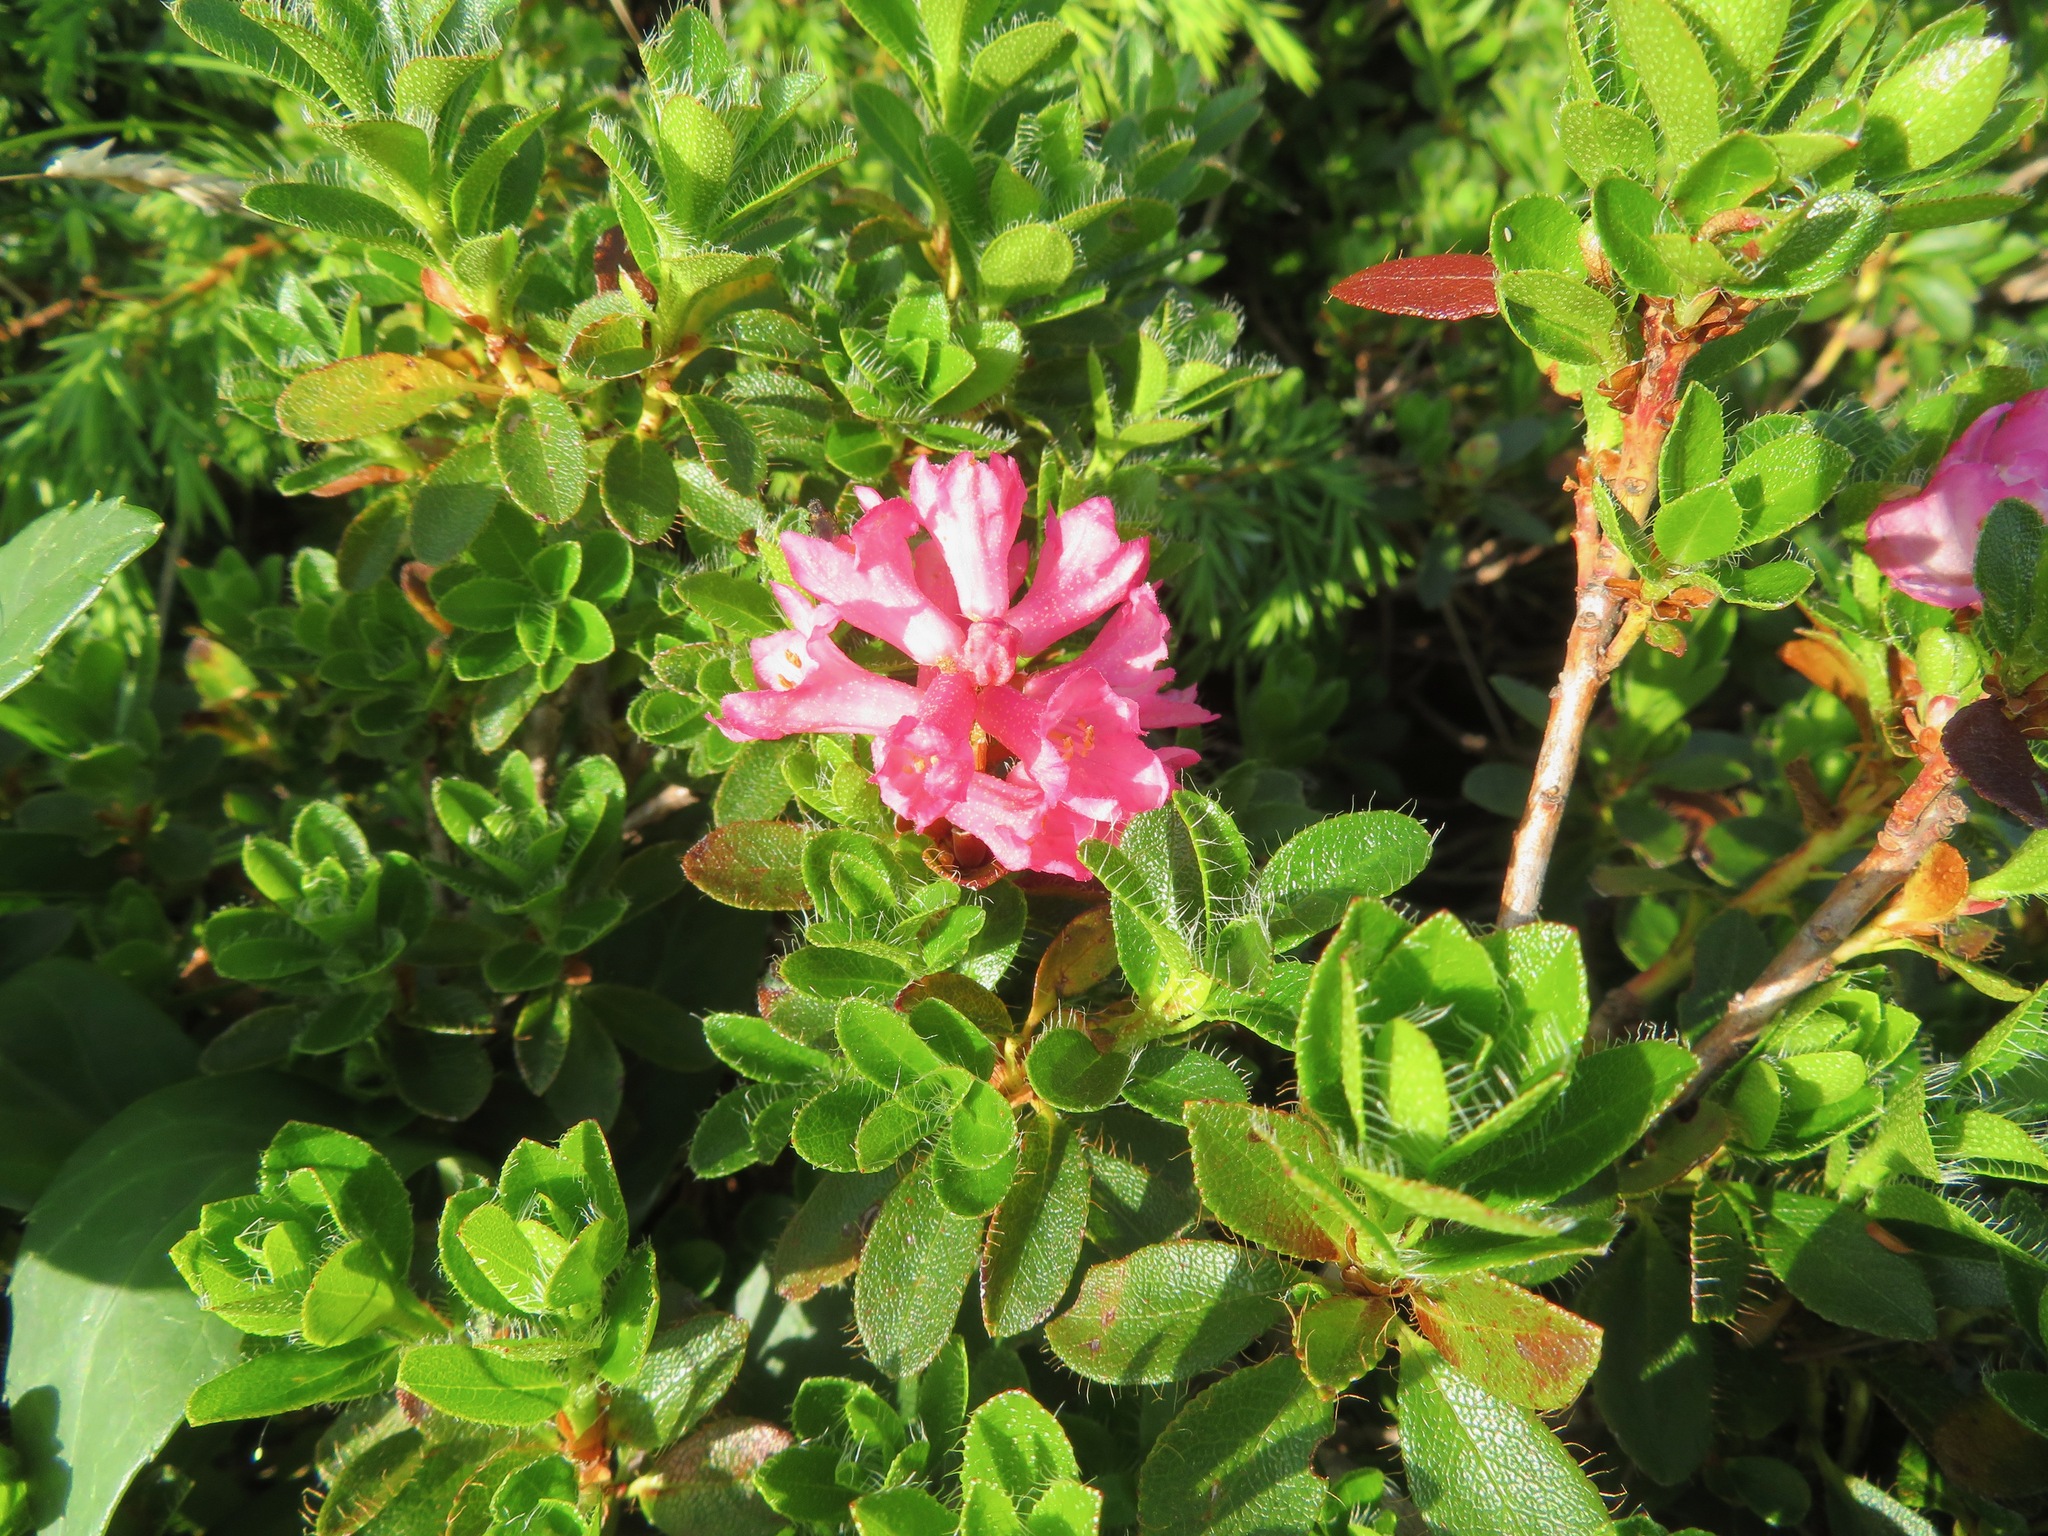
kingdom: Plantae
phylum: Tracheophyta
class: Magnoliopsida
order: Ericales
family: Ericaceae
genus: Rhododendron
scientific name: Rhododendron hirsutum
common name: Hairy alpenrose
